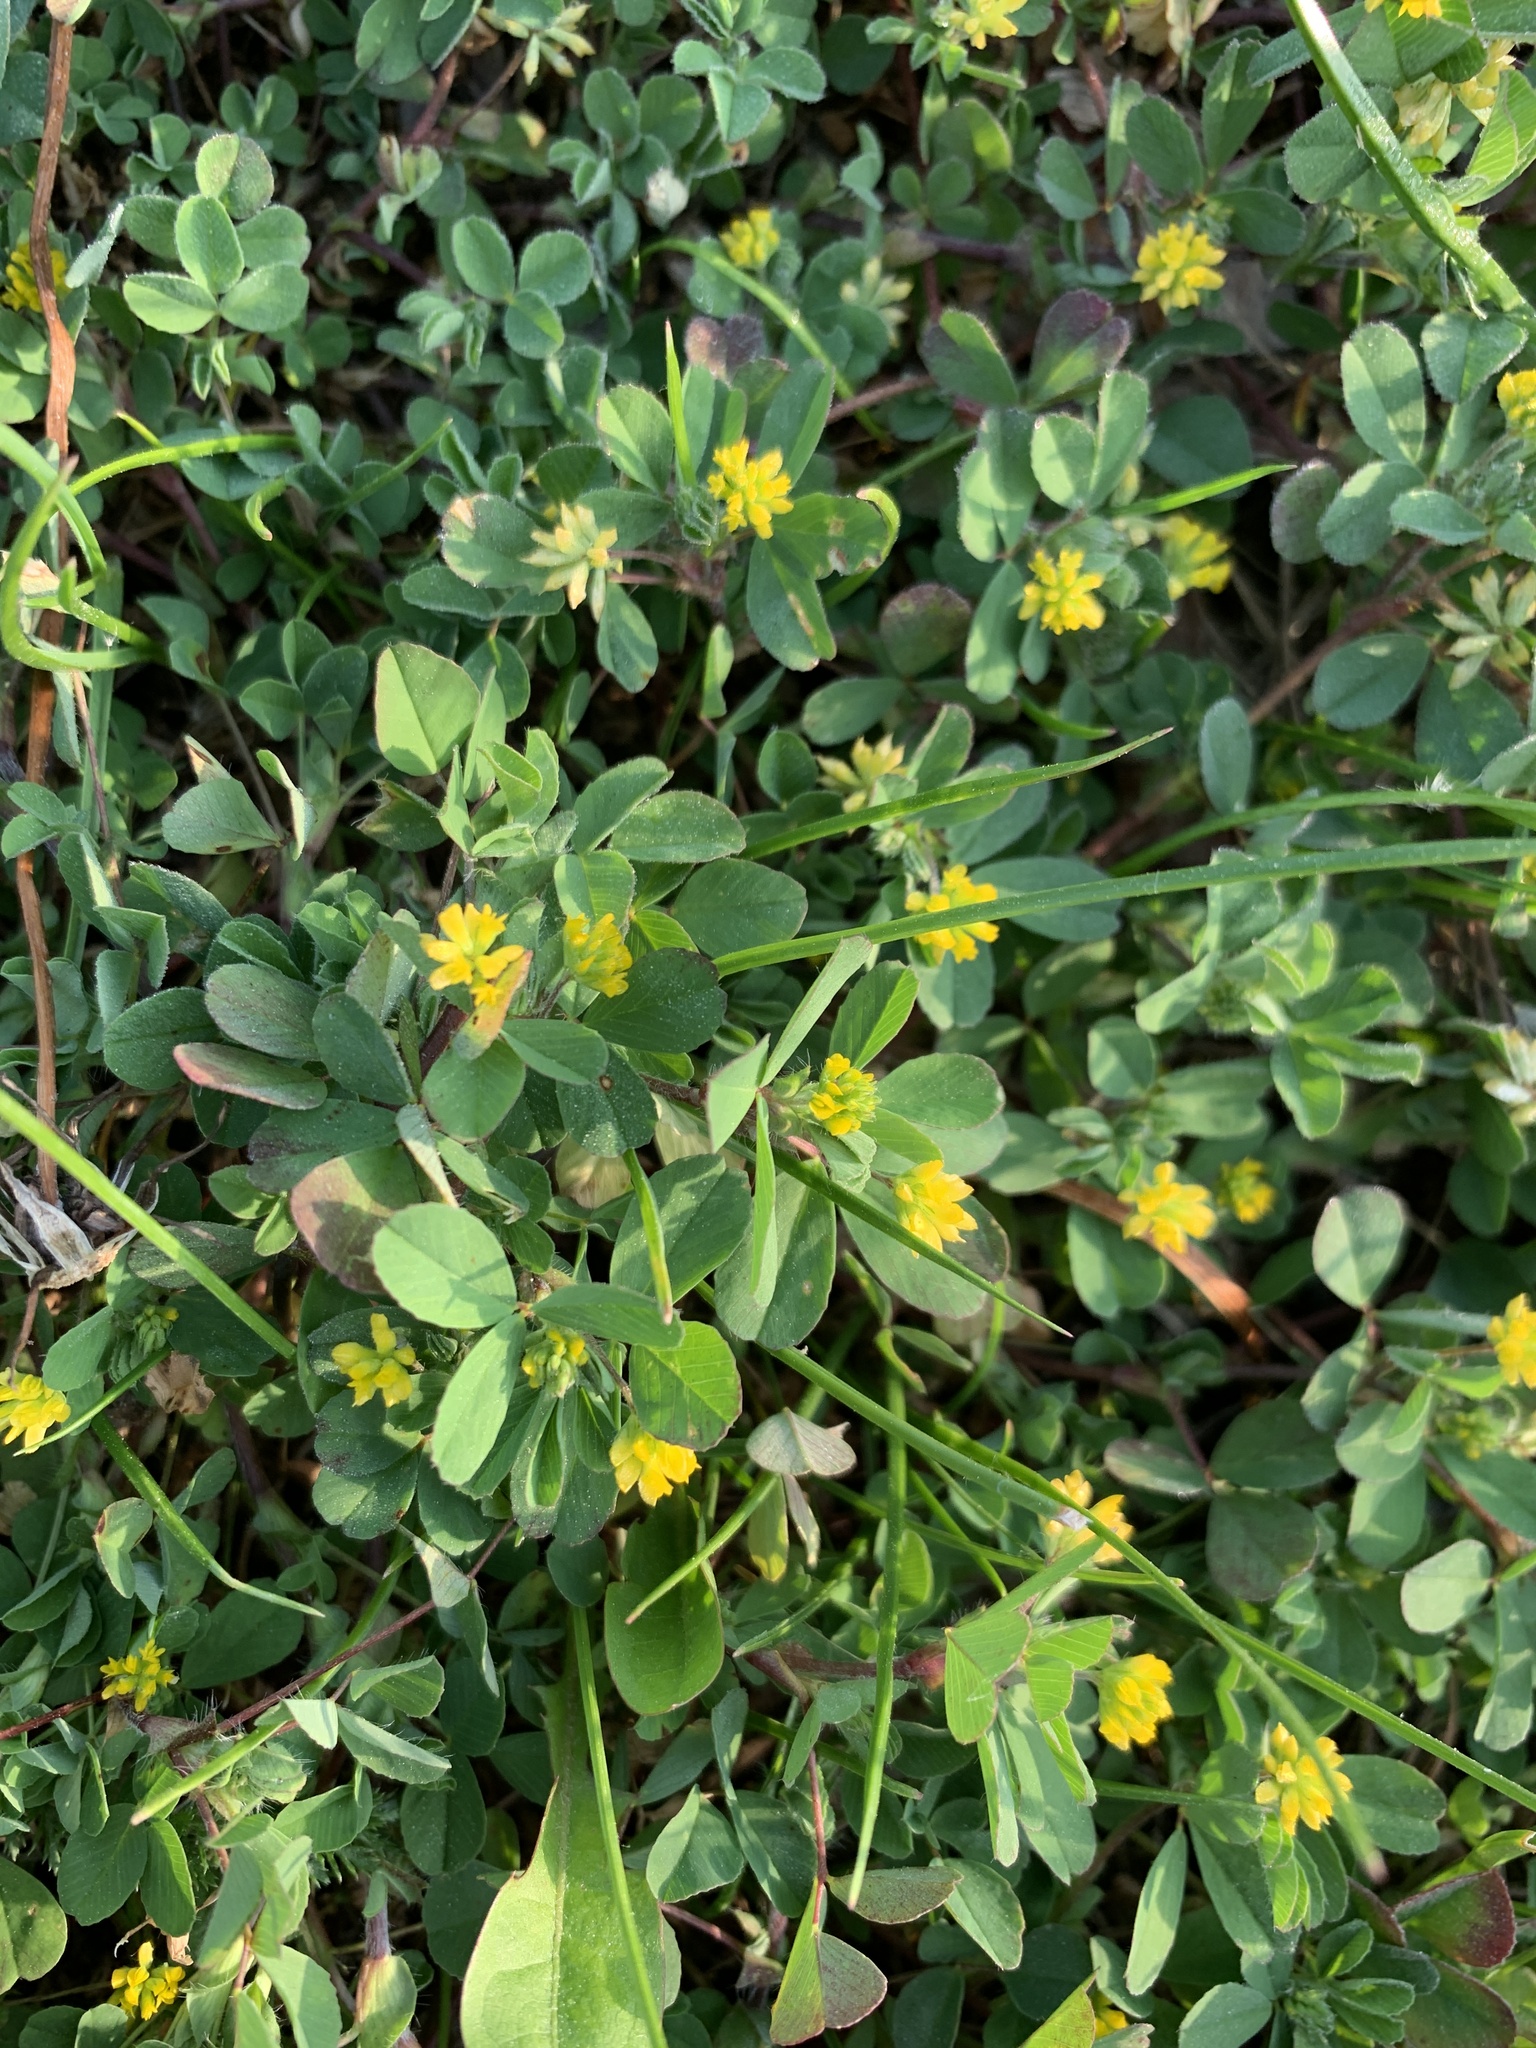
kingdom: Plantae
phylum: Tracheophyta
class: Magnoliopsida
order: Fabales
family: Fabaceae
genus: Trifolium
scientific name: Trifolium dubium
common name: Suckling clover
